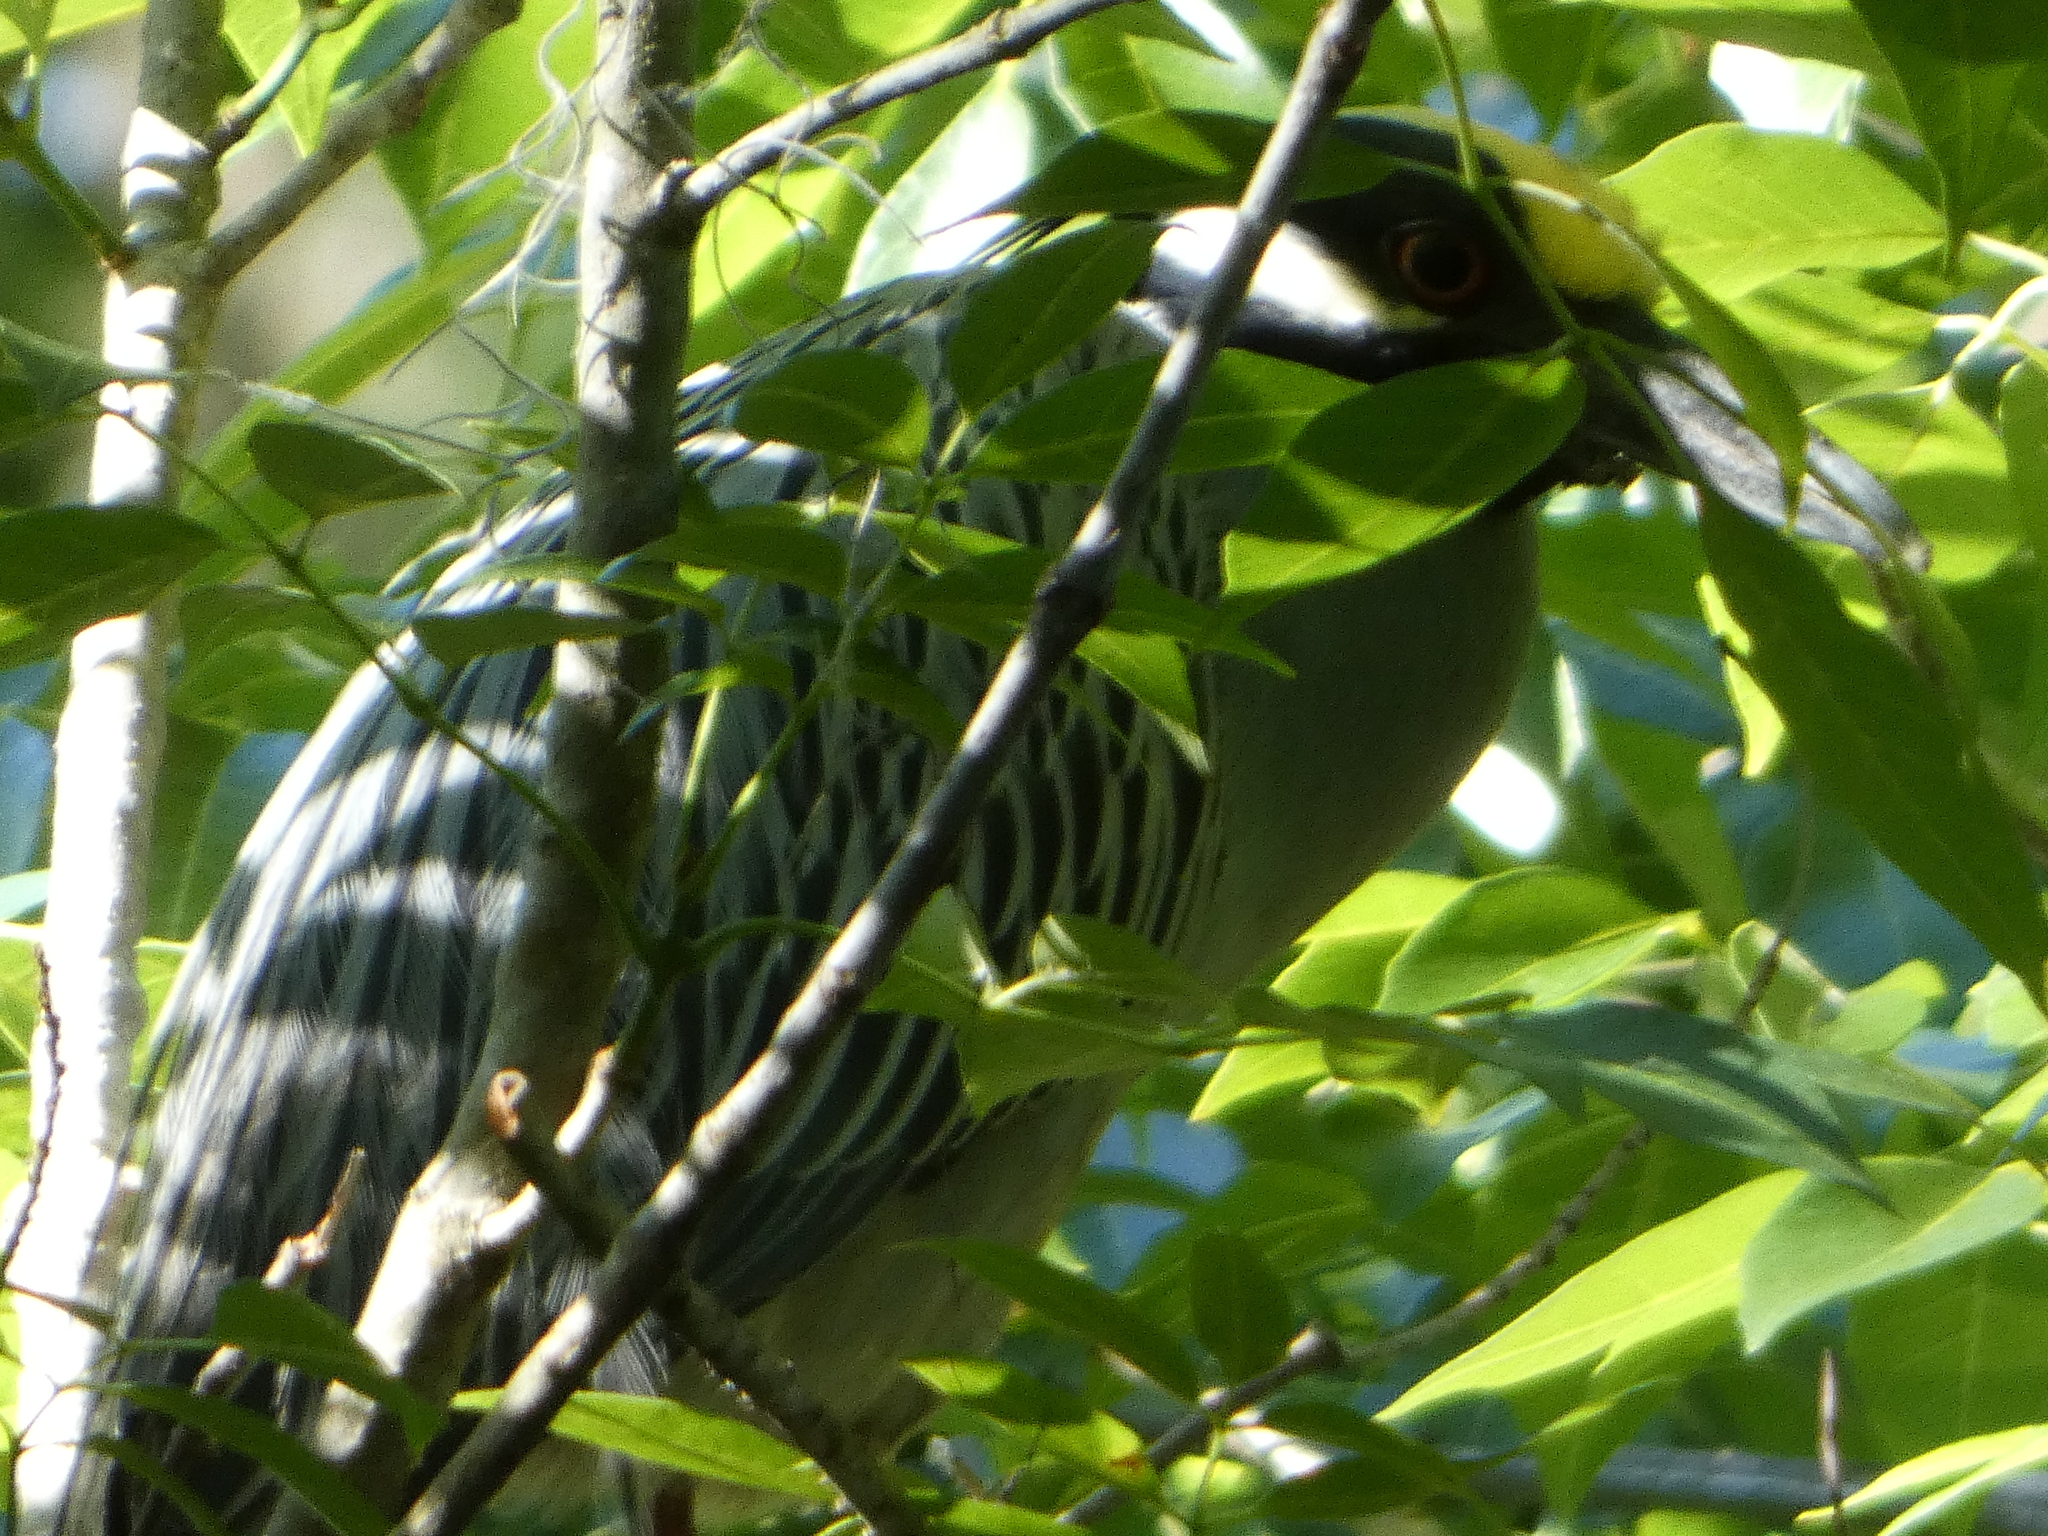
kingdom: Animalia
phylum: Chordata
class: Aves
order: Pelecaniformes
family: Ardeidae
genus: Nyctanassa
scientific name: Nyctanassa violacea
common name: Yellow-crowned night heron
